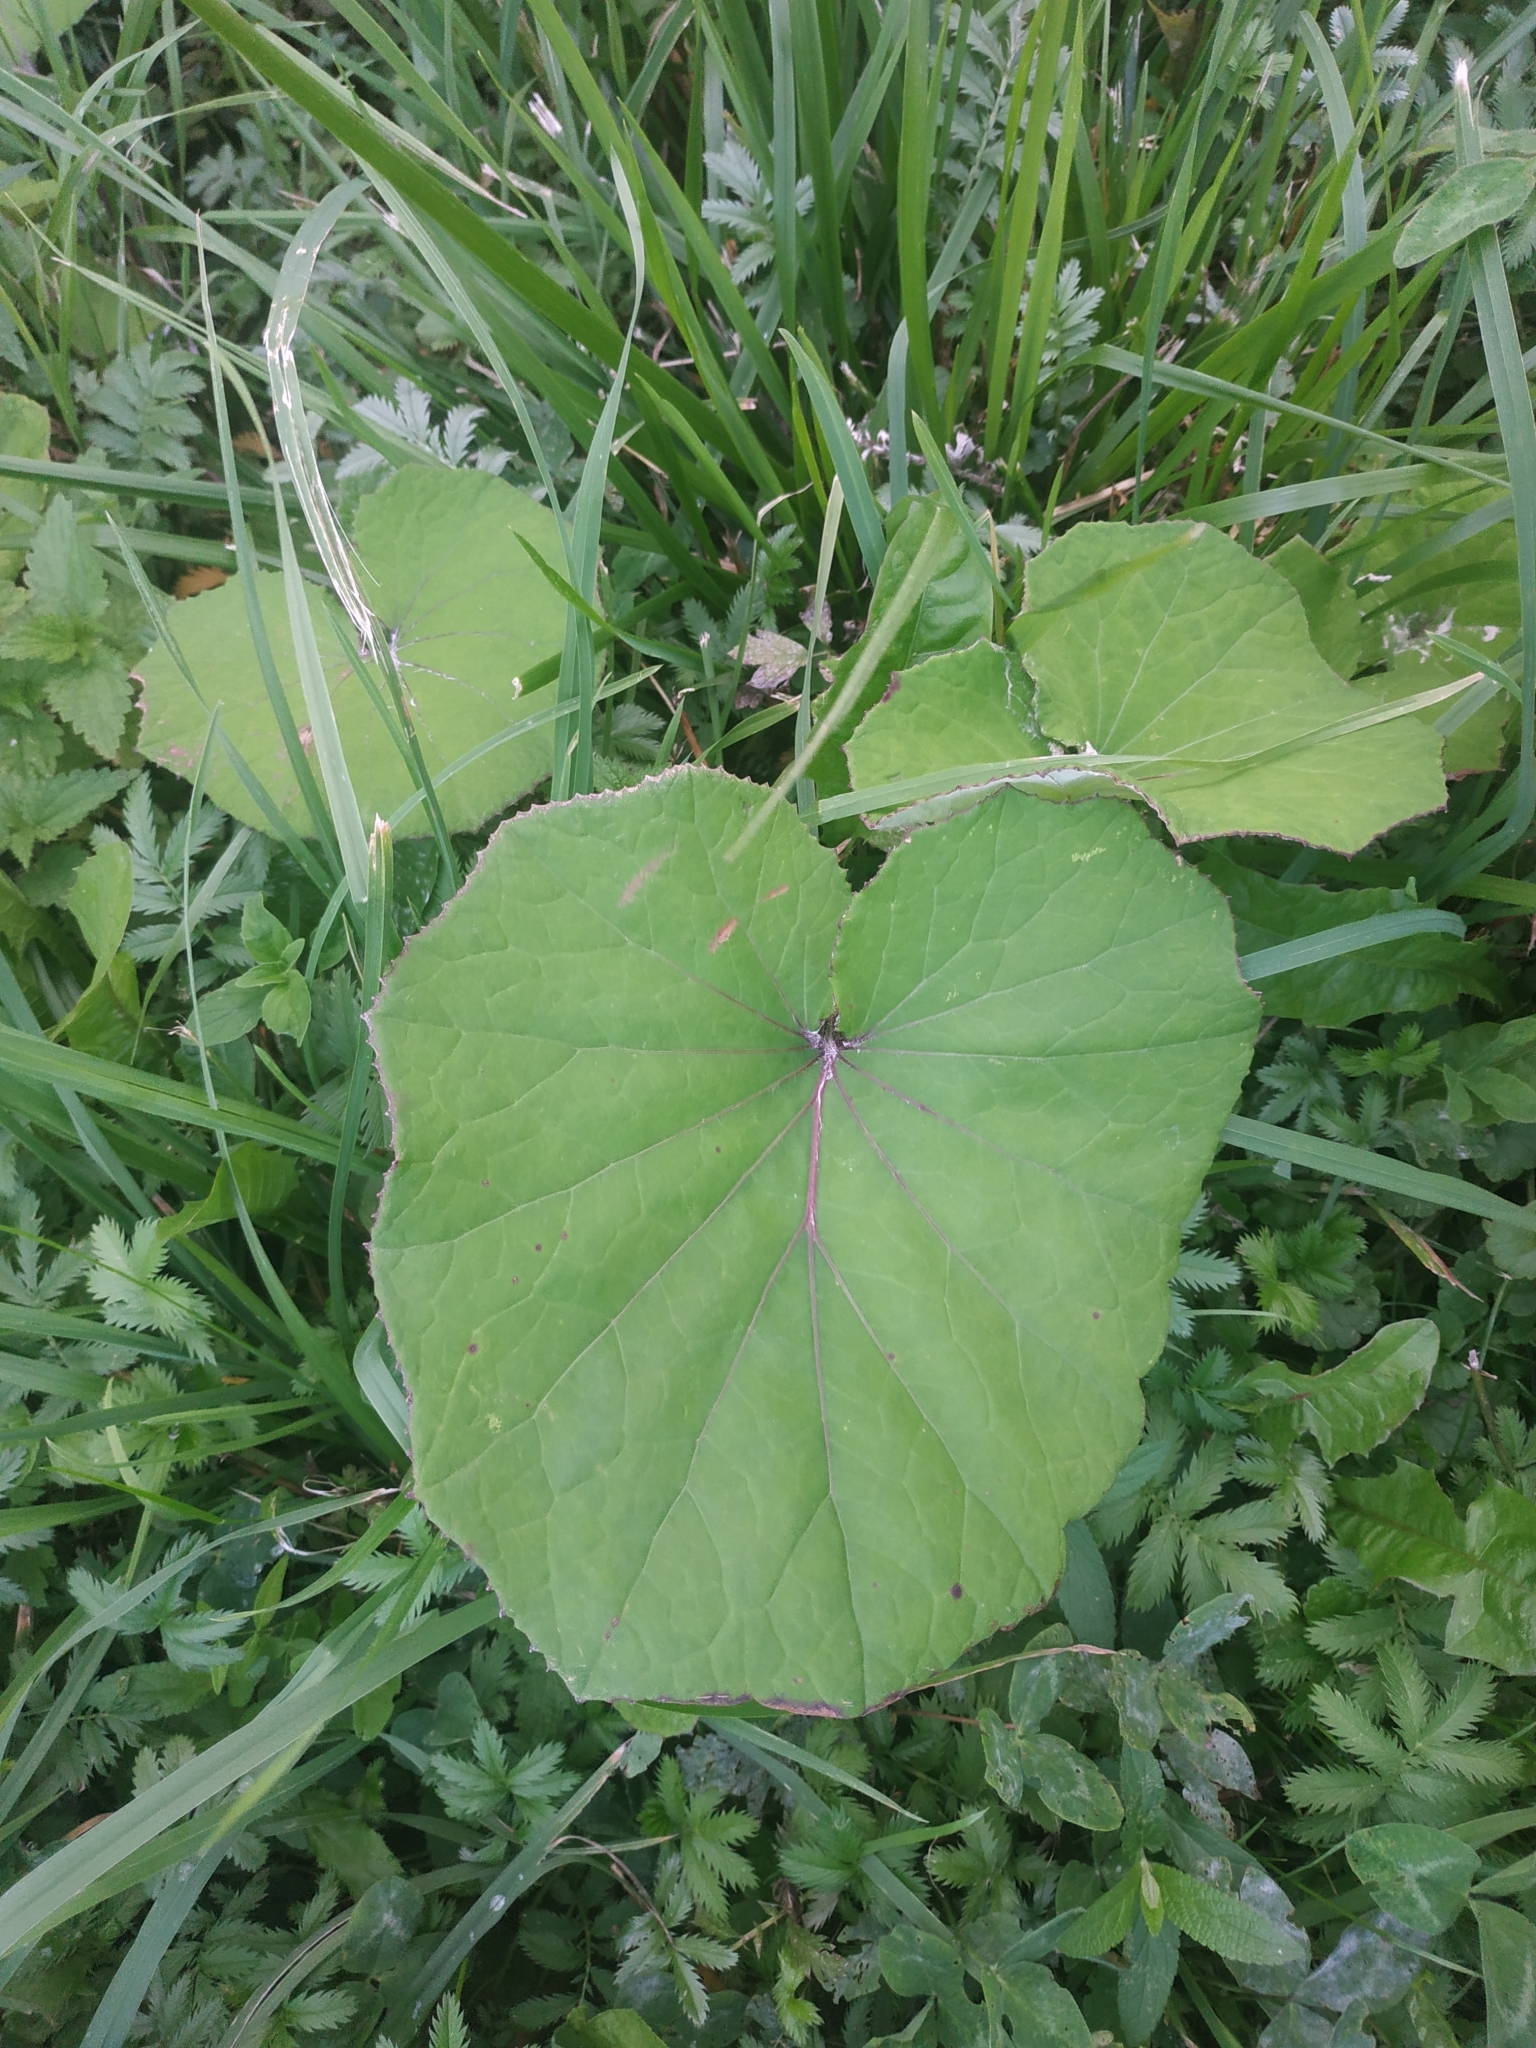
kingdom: Plantae
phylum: Tracheophyta
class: Magnoliopsida
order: Asterales
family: Asteraceae
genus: Tussilago
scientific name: Tussilago farfara
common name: Coltsfoot
